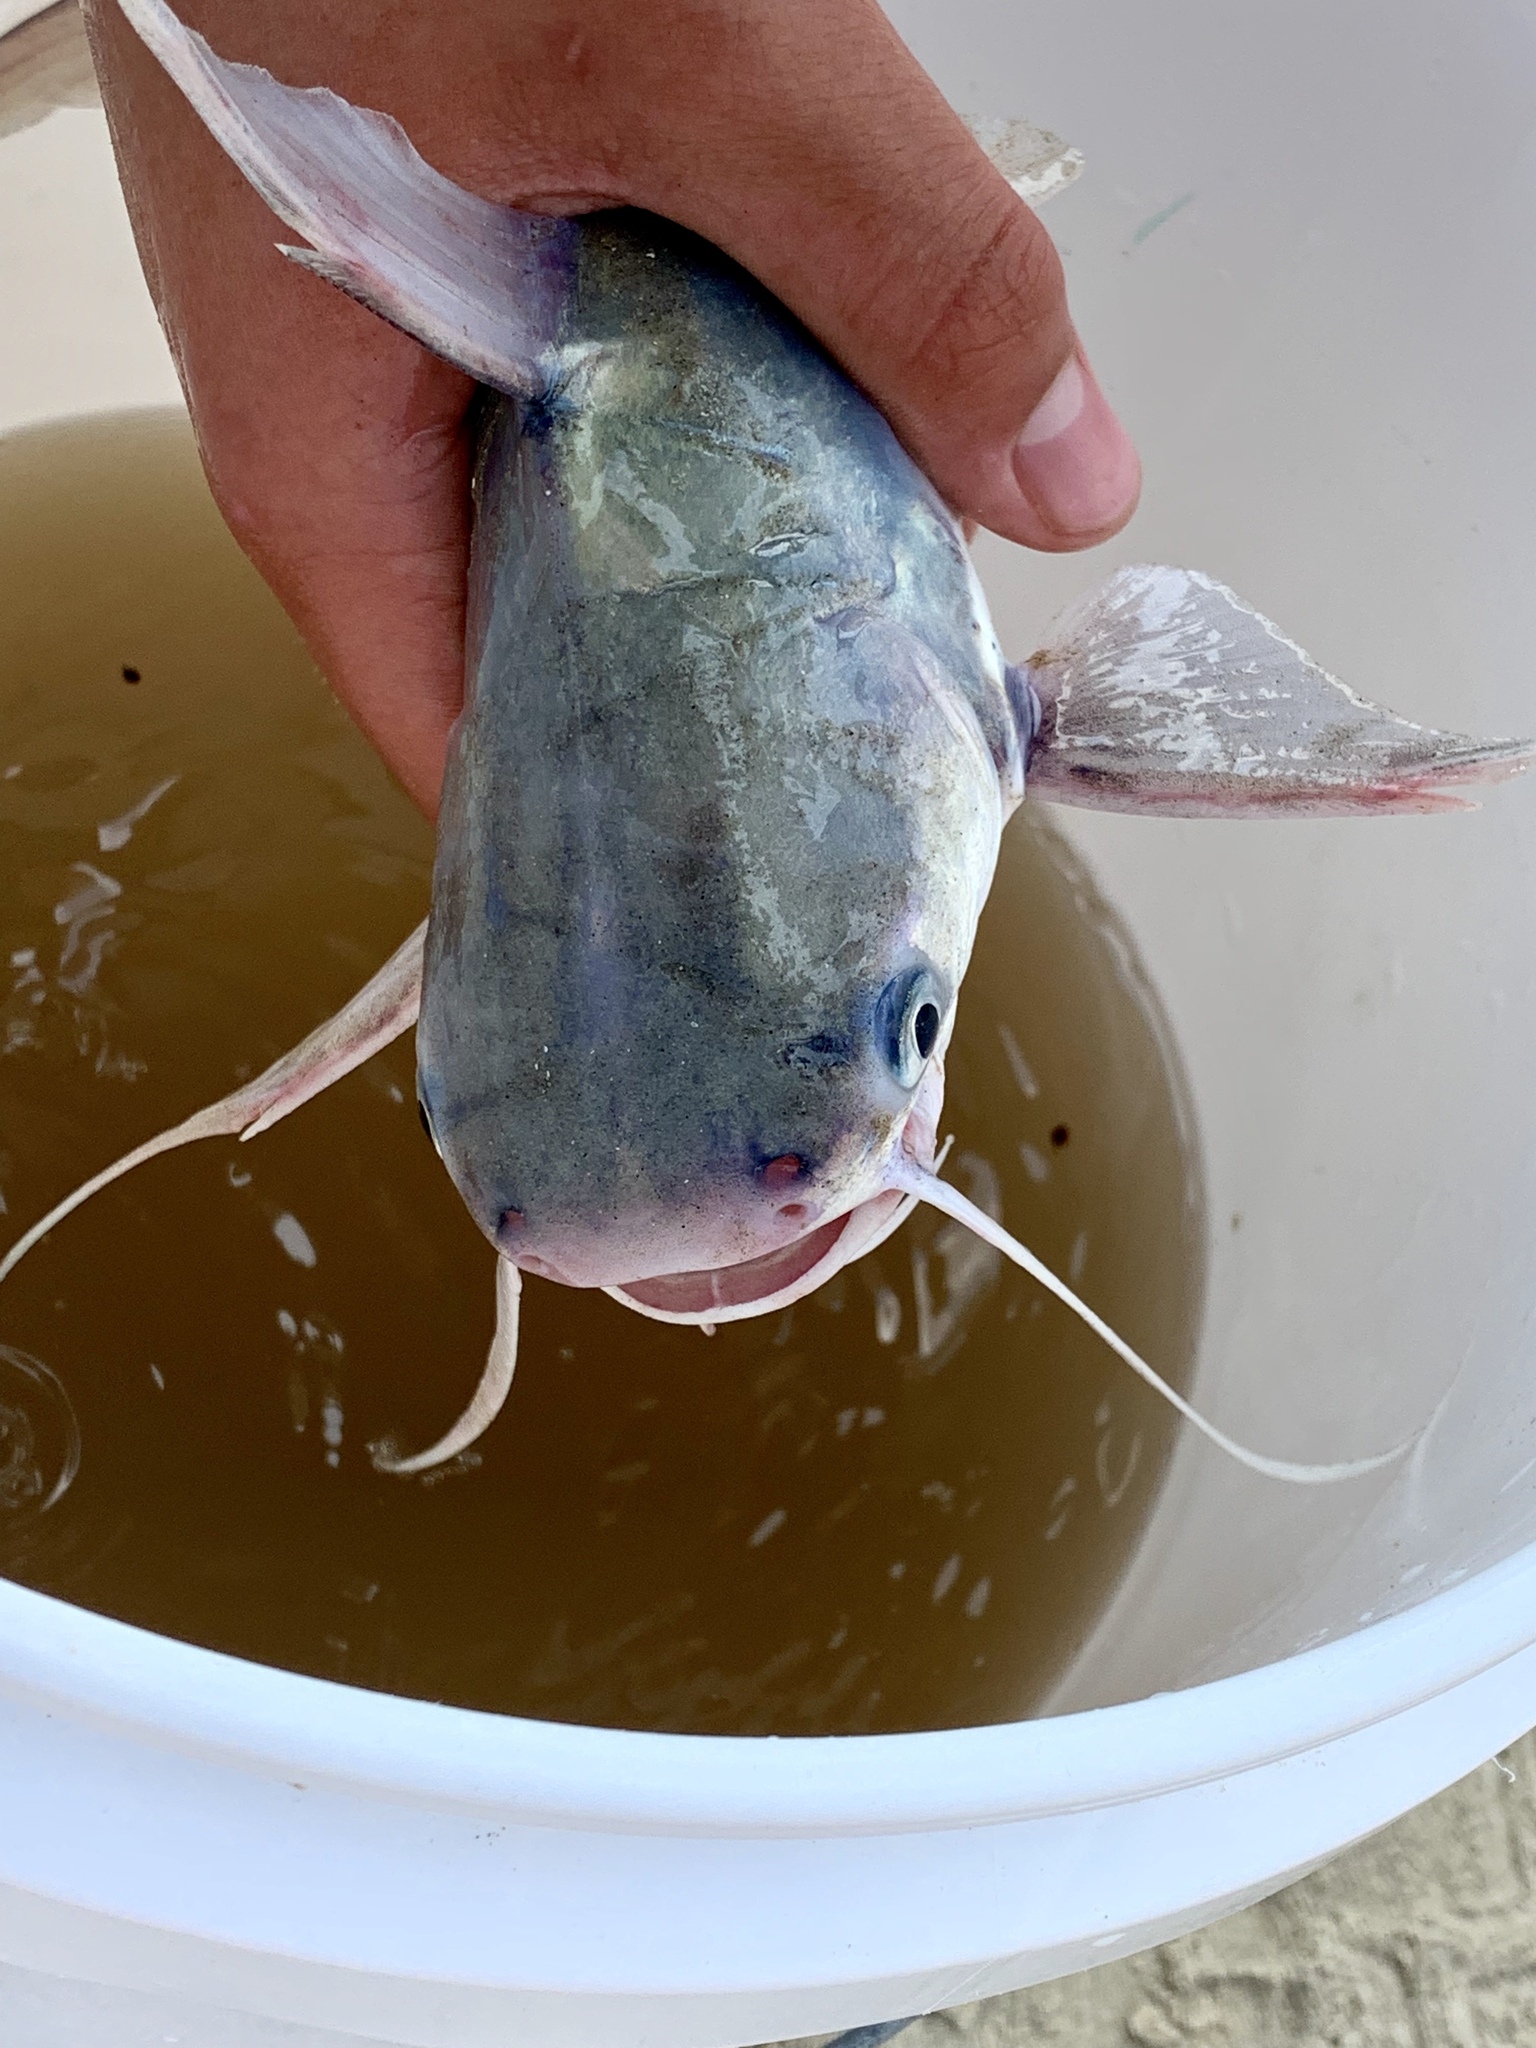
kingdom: Animalia
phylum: Chordata
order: Siluriformes
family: Ariidae
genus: Bagre
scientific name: Bagre marinus
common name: Gafftopsail sea catfish
